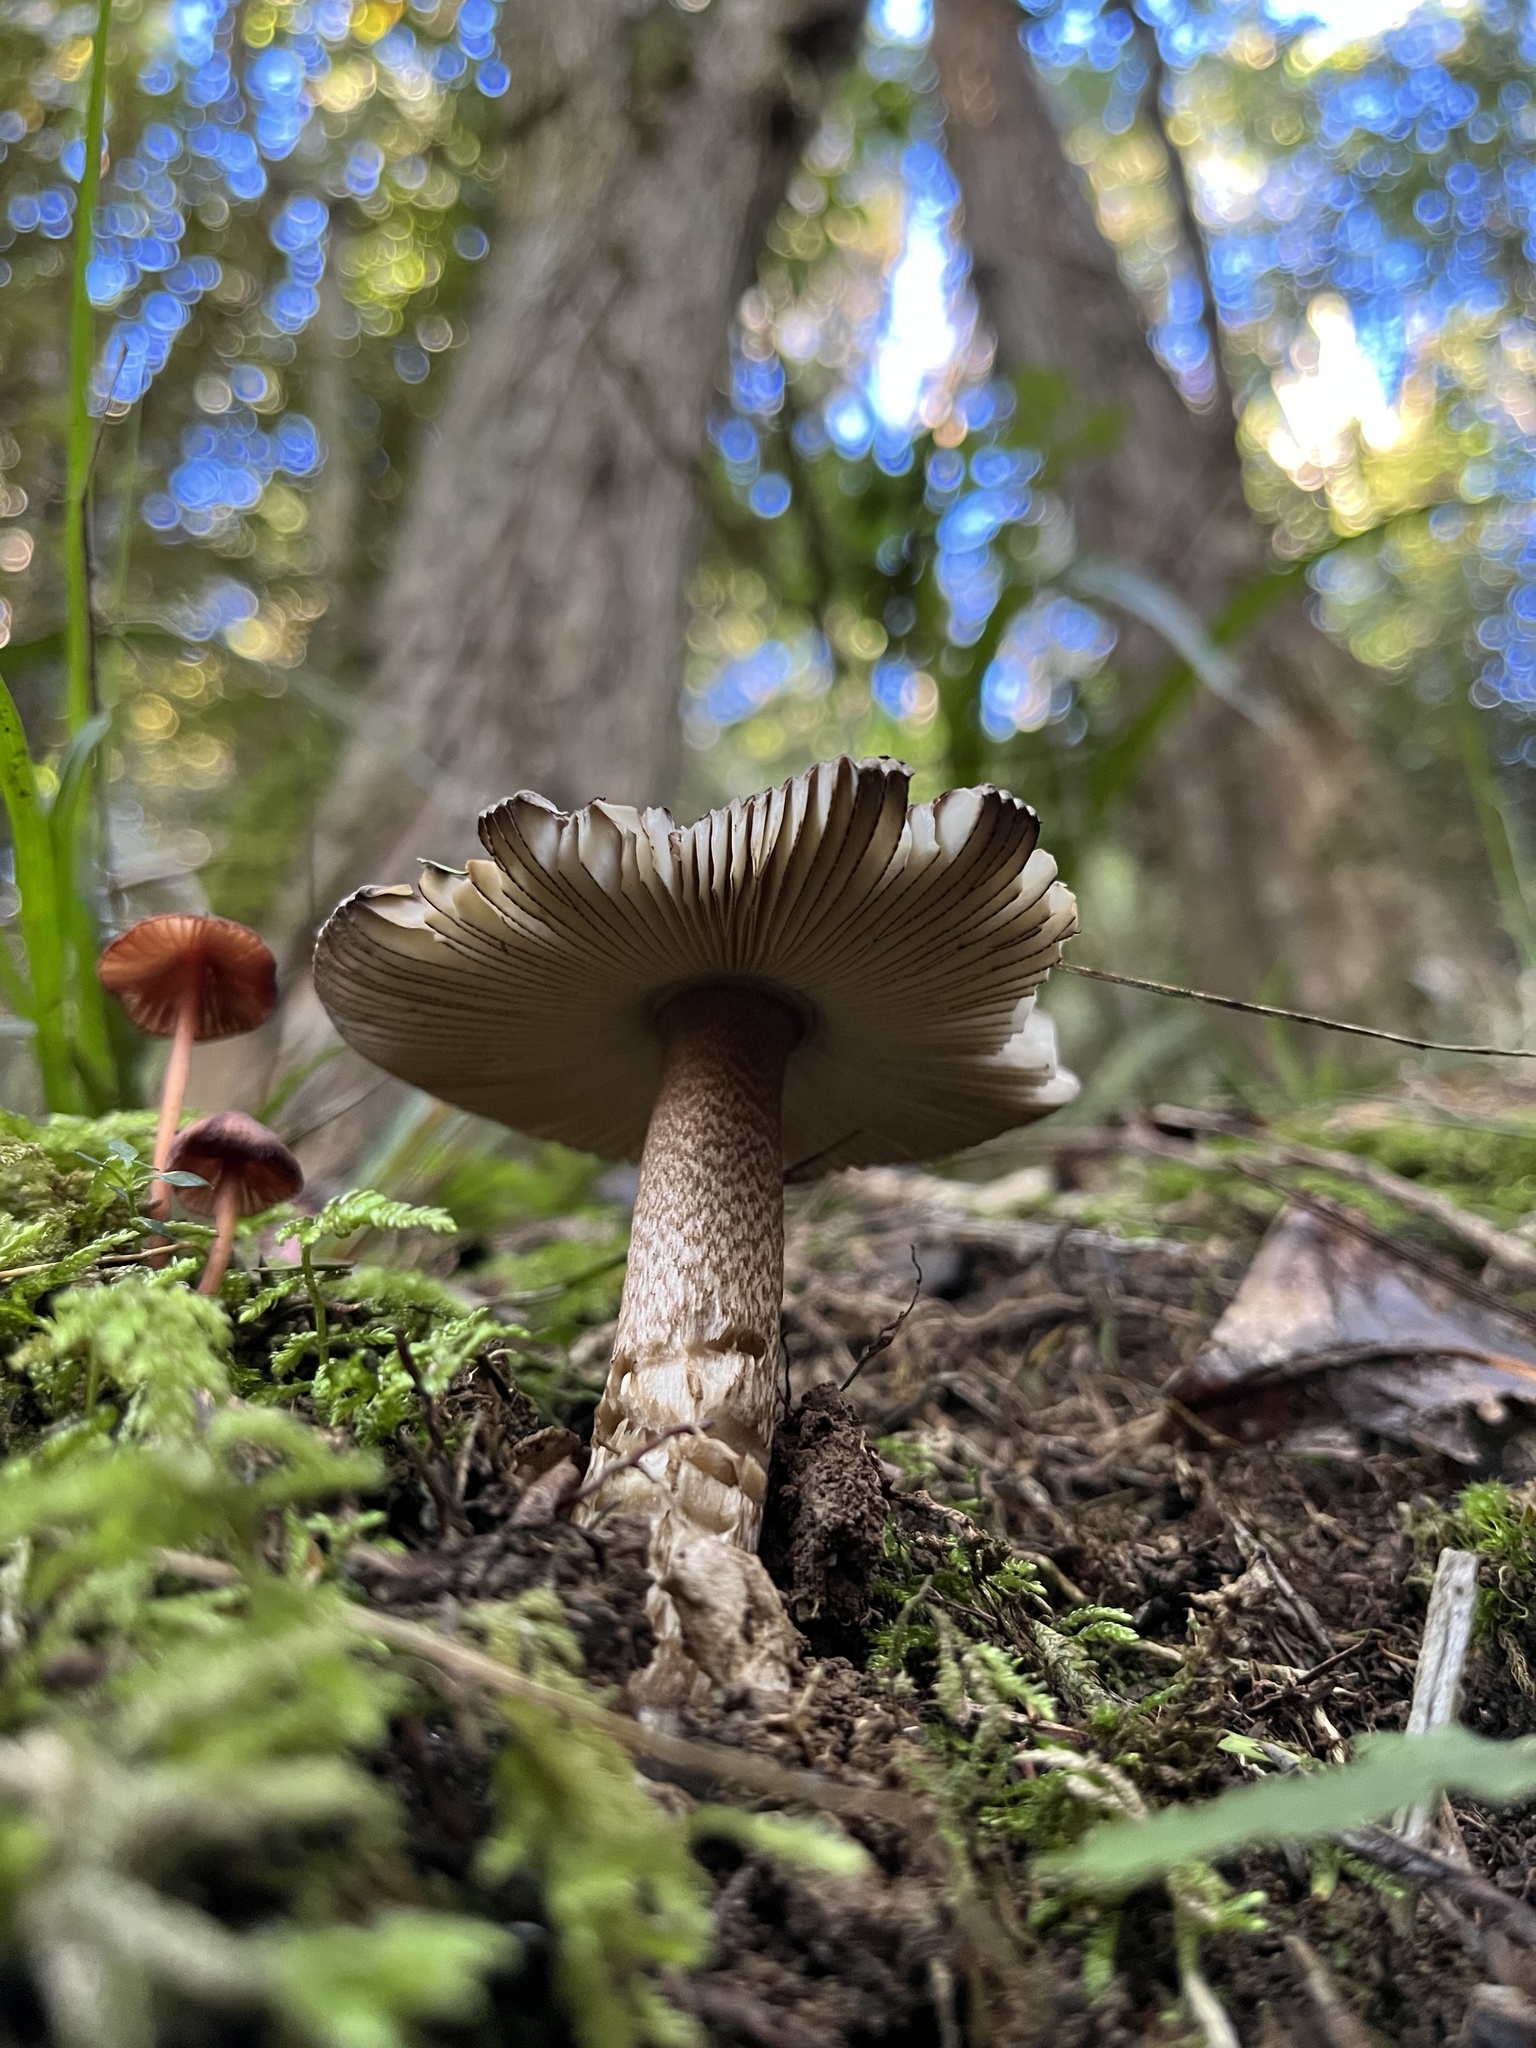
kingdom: Fungi
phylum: Basidiomycota
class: Agaricomycetes
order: Agaricales
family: Amanitaceae
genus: Amanita
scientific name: Amanita pekeoides
